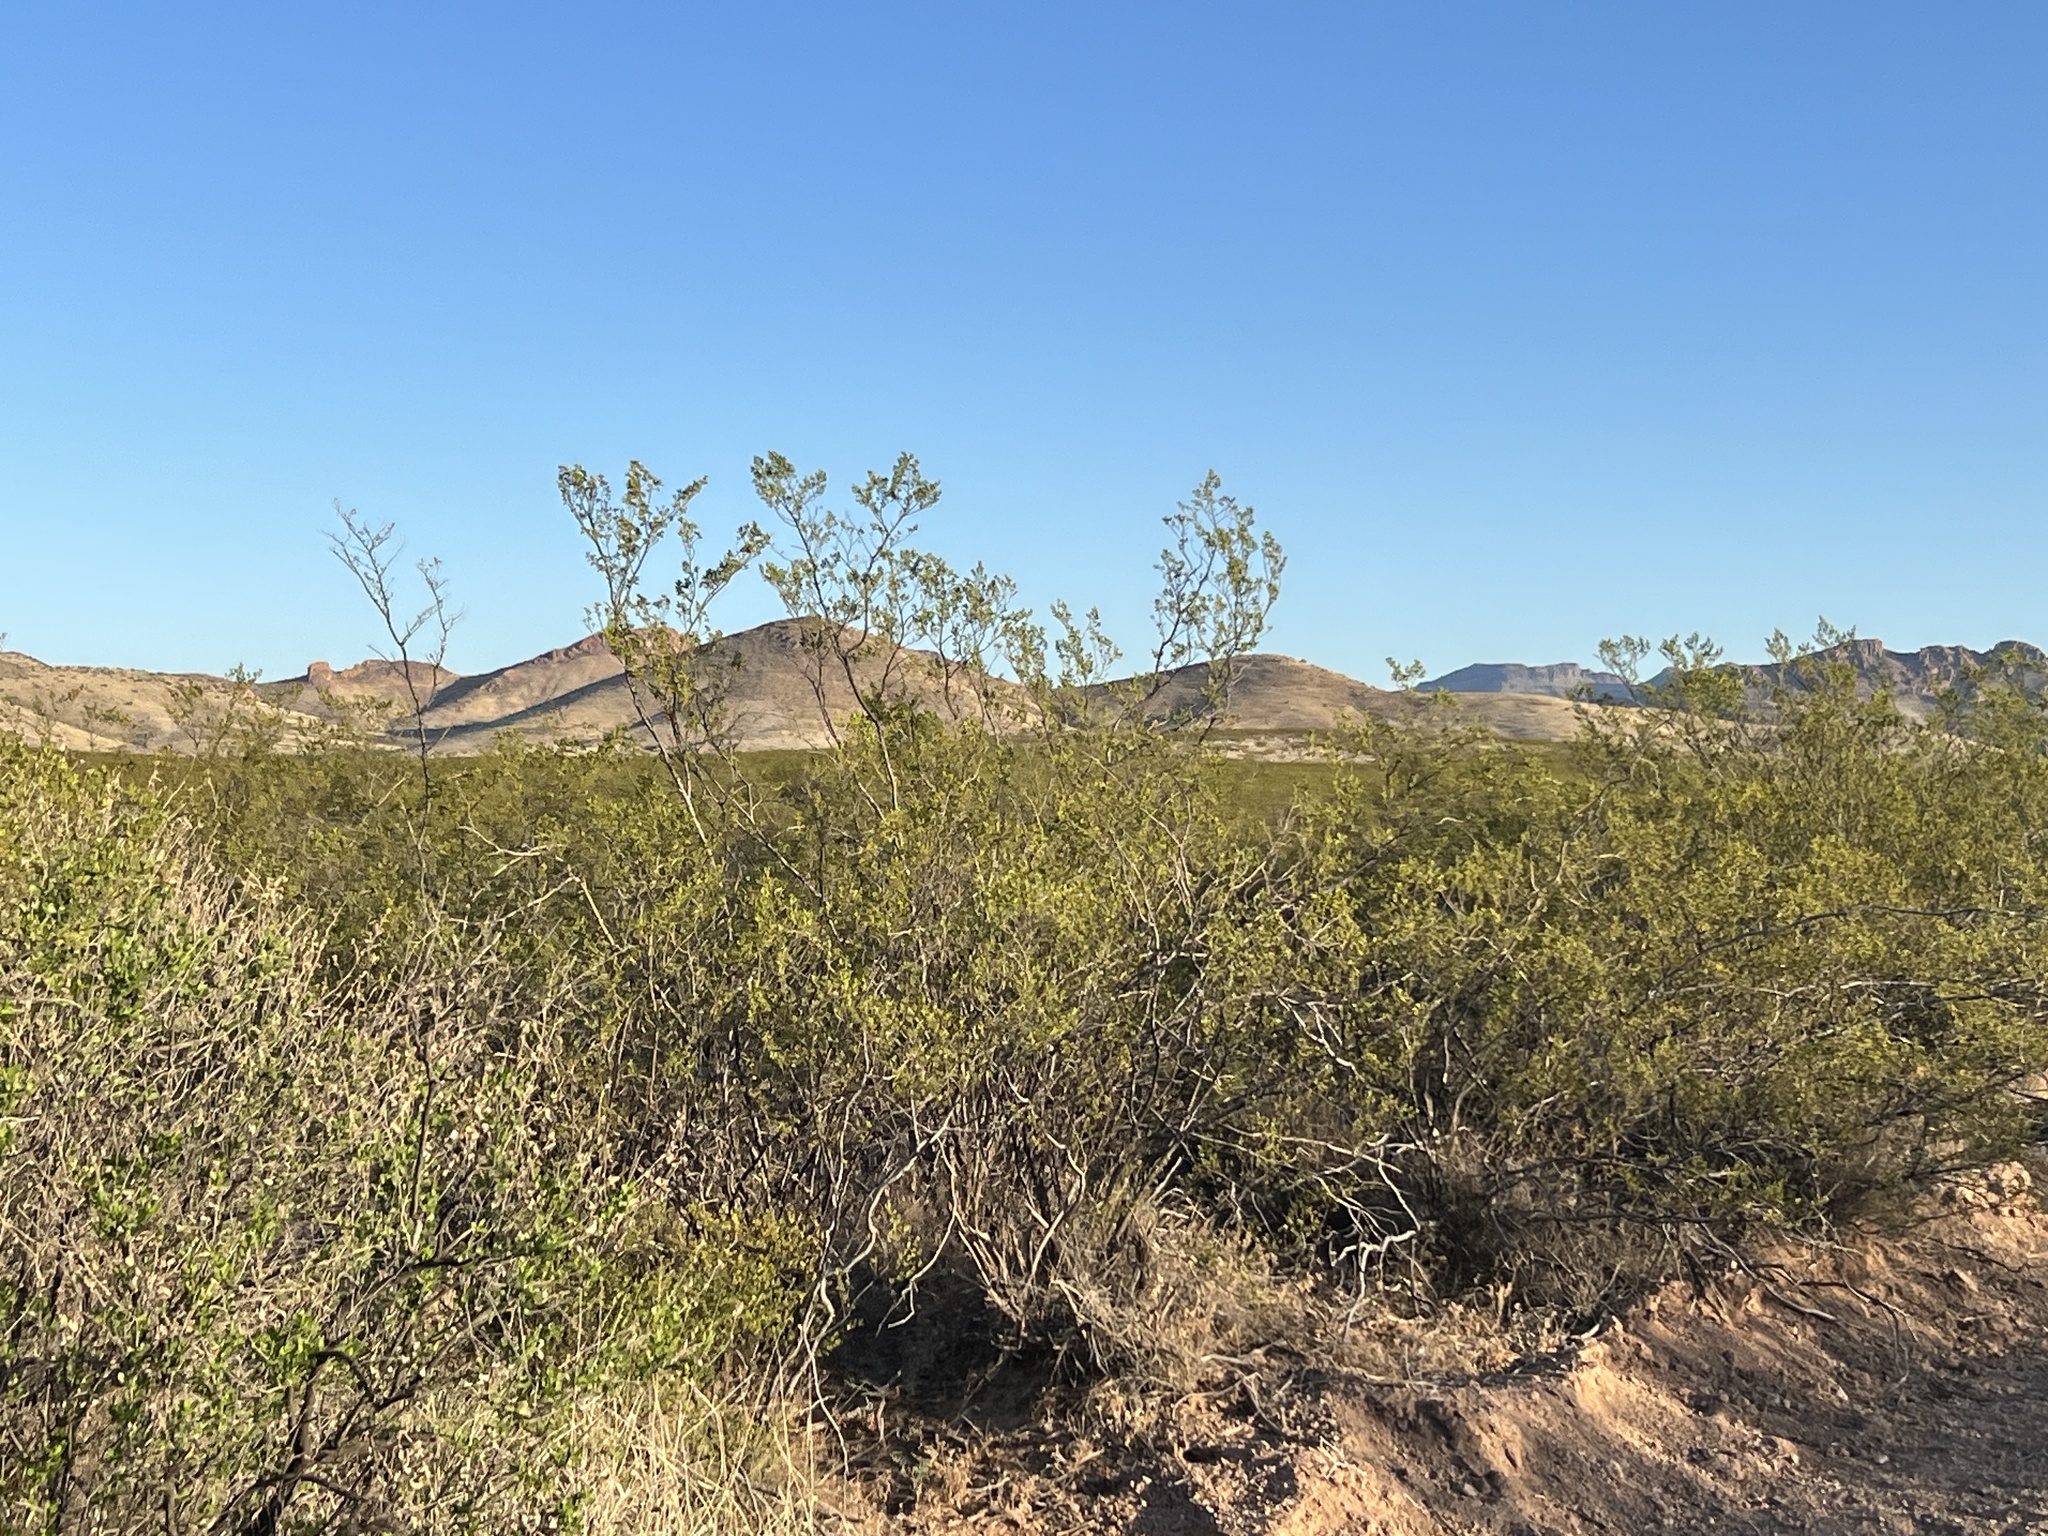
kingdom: Plantae
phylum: Tracheophyta
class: Magnoliopsida
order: Zygophyllales
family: Zygophyllaceae
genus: Larrea
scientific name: Larrea tridentata
